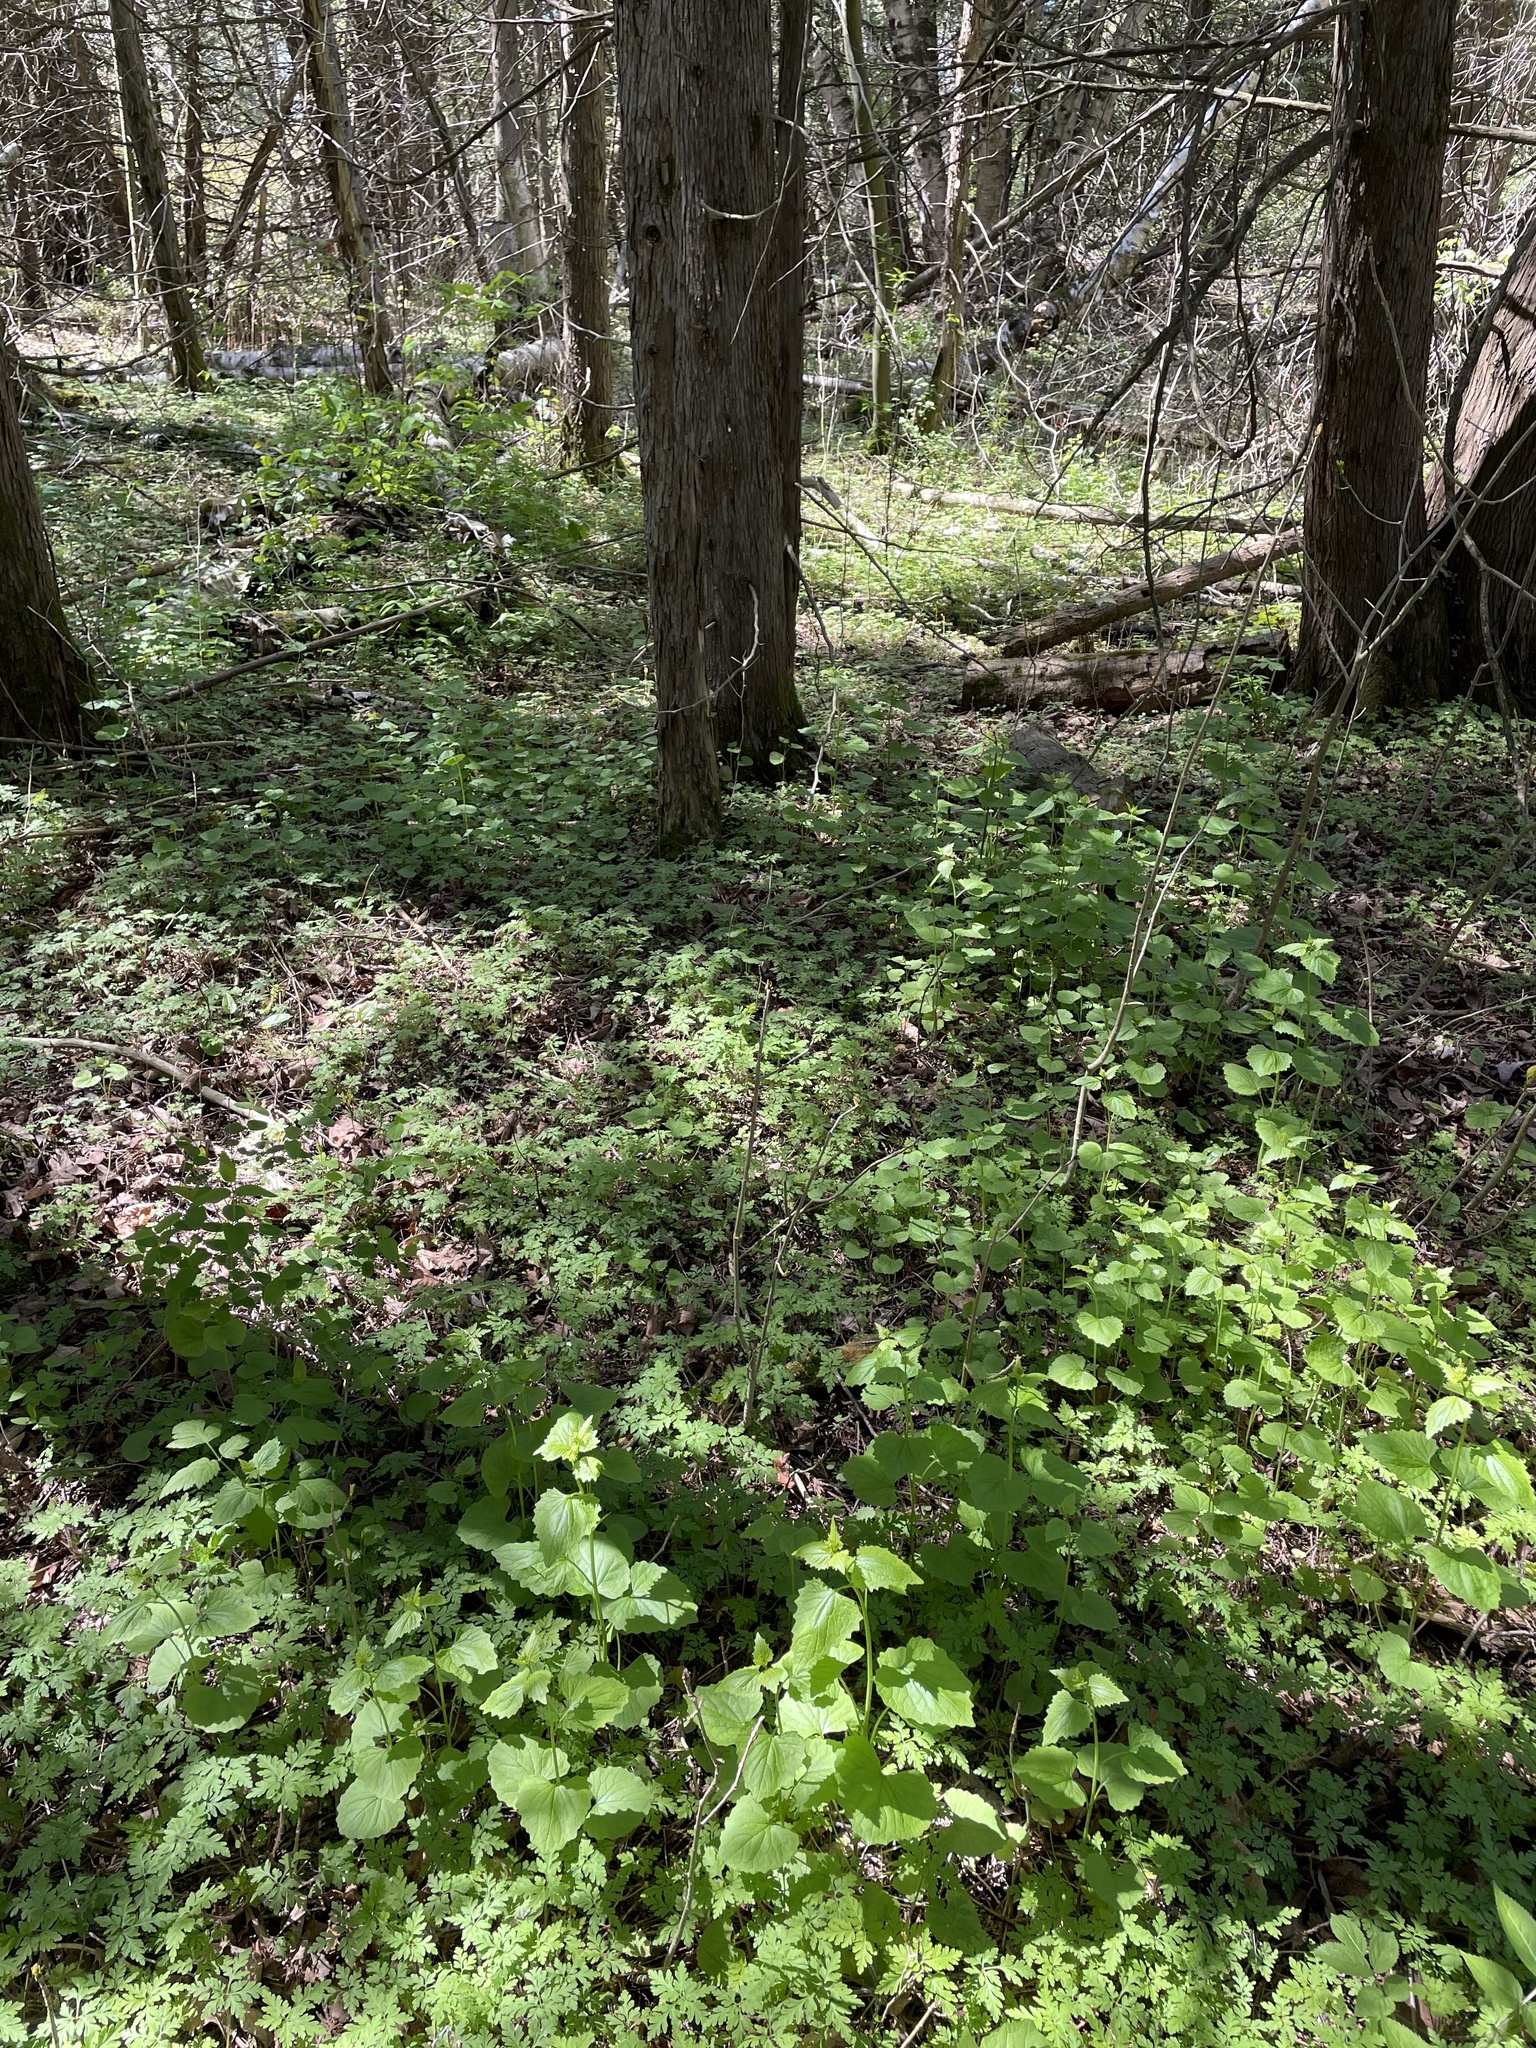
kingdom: Plantae
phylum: Tracheophyta
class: Magnoliopsida
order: Brassicales
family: Brassicaceae
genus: Alliaria
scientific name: Alliaria petiolata
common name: Garlic mustard
